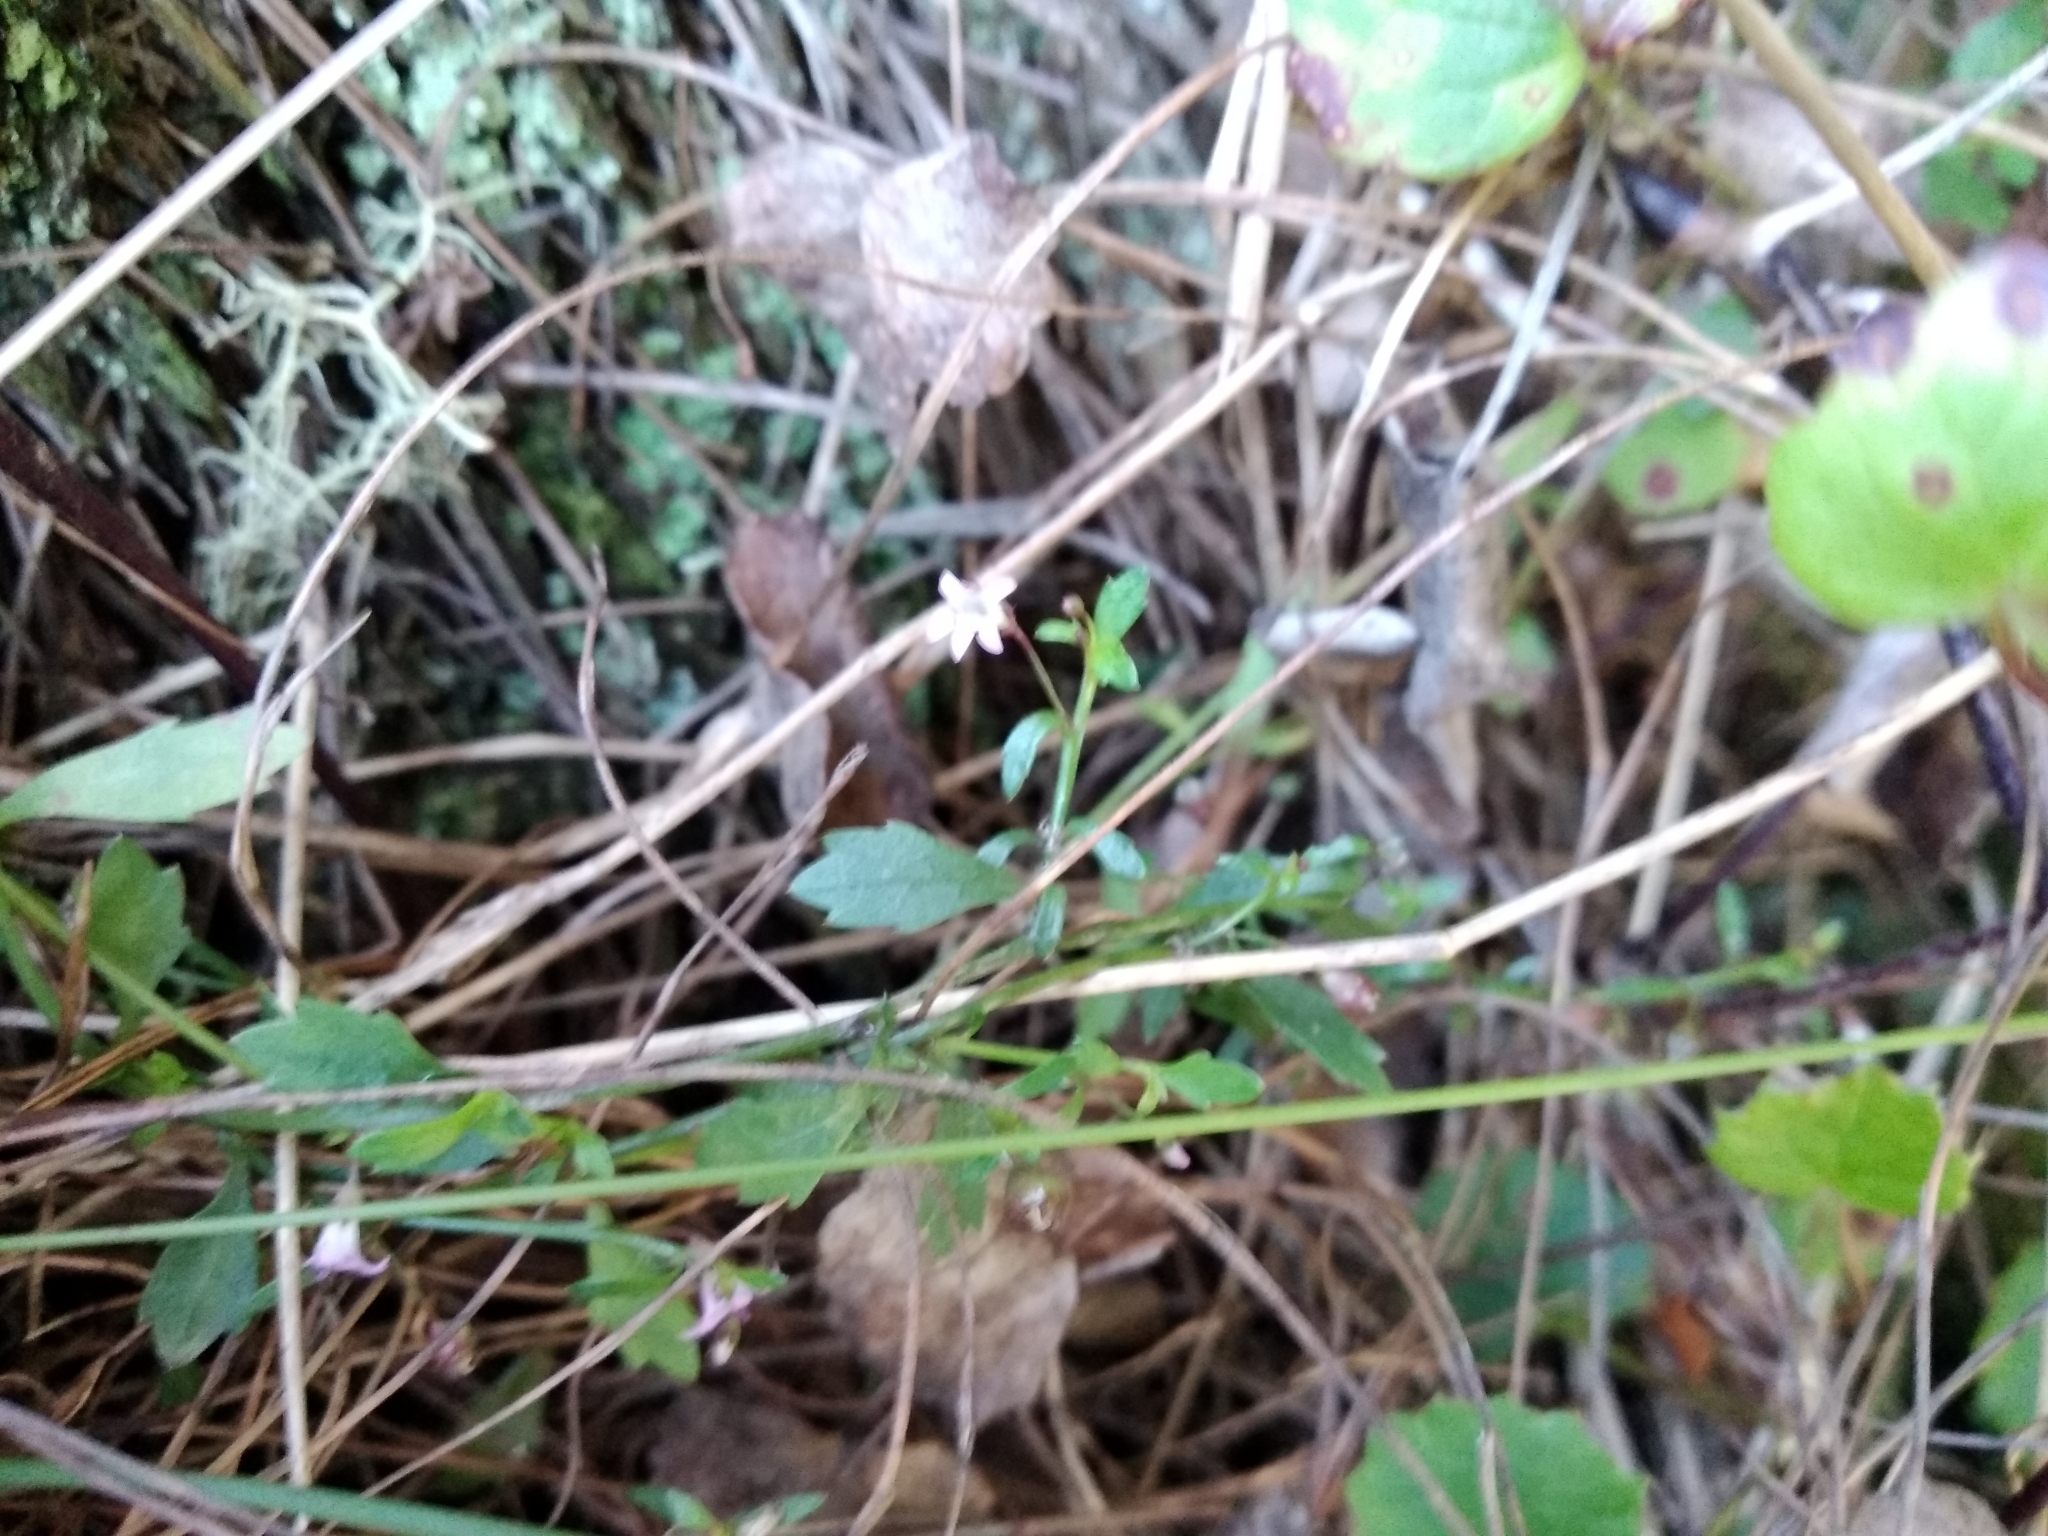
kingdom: Plantae
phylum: Tracheophyta
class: Magnoliopsida
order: Asterales
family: Campanulaceae
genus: Lobelia
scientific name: Lobelia eckloniana
